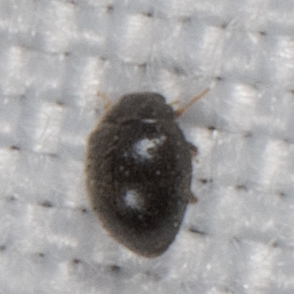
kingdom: Animalia
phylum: Arthropoda
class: Insecta
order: Coleoptera
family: Coccinellidae
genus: Scymnus
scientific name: Scymnus
